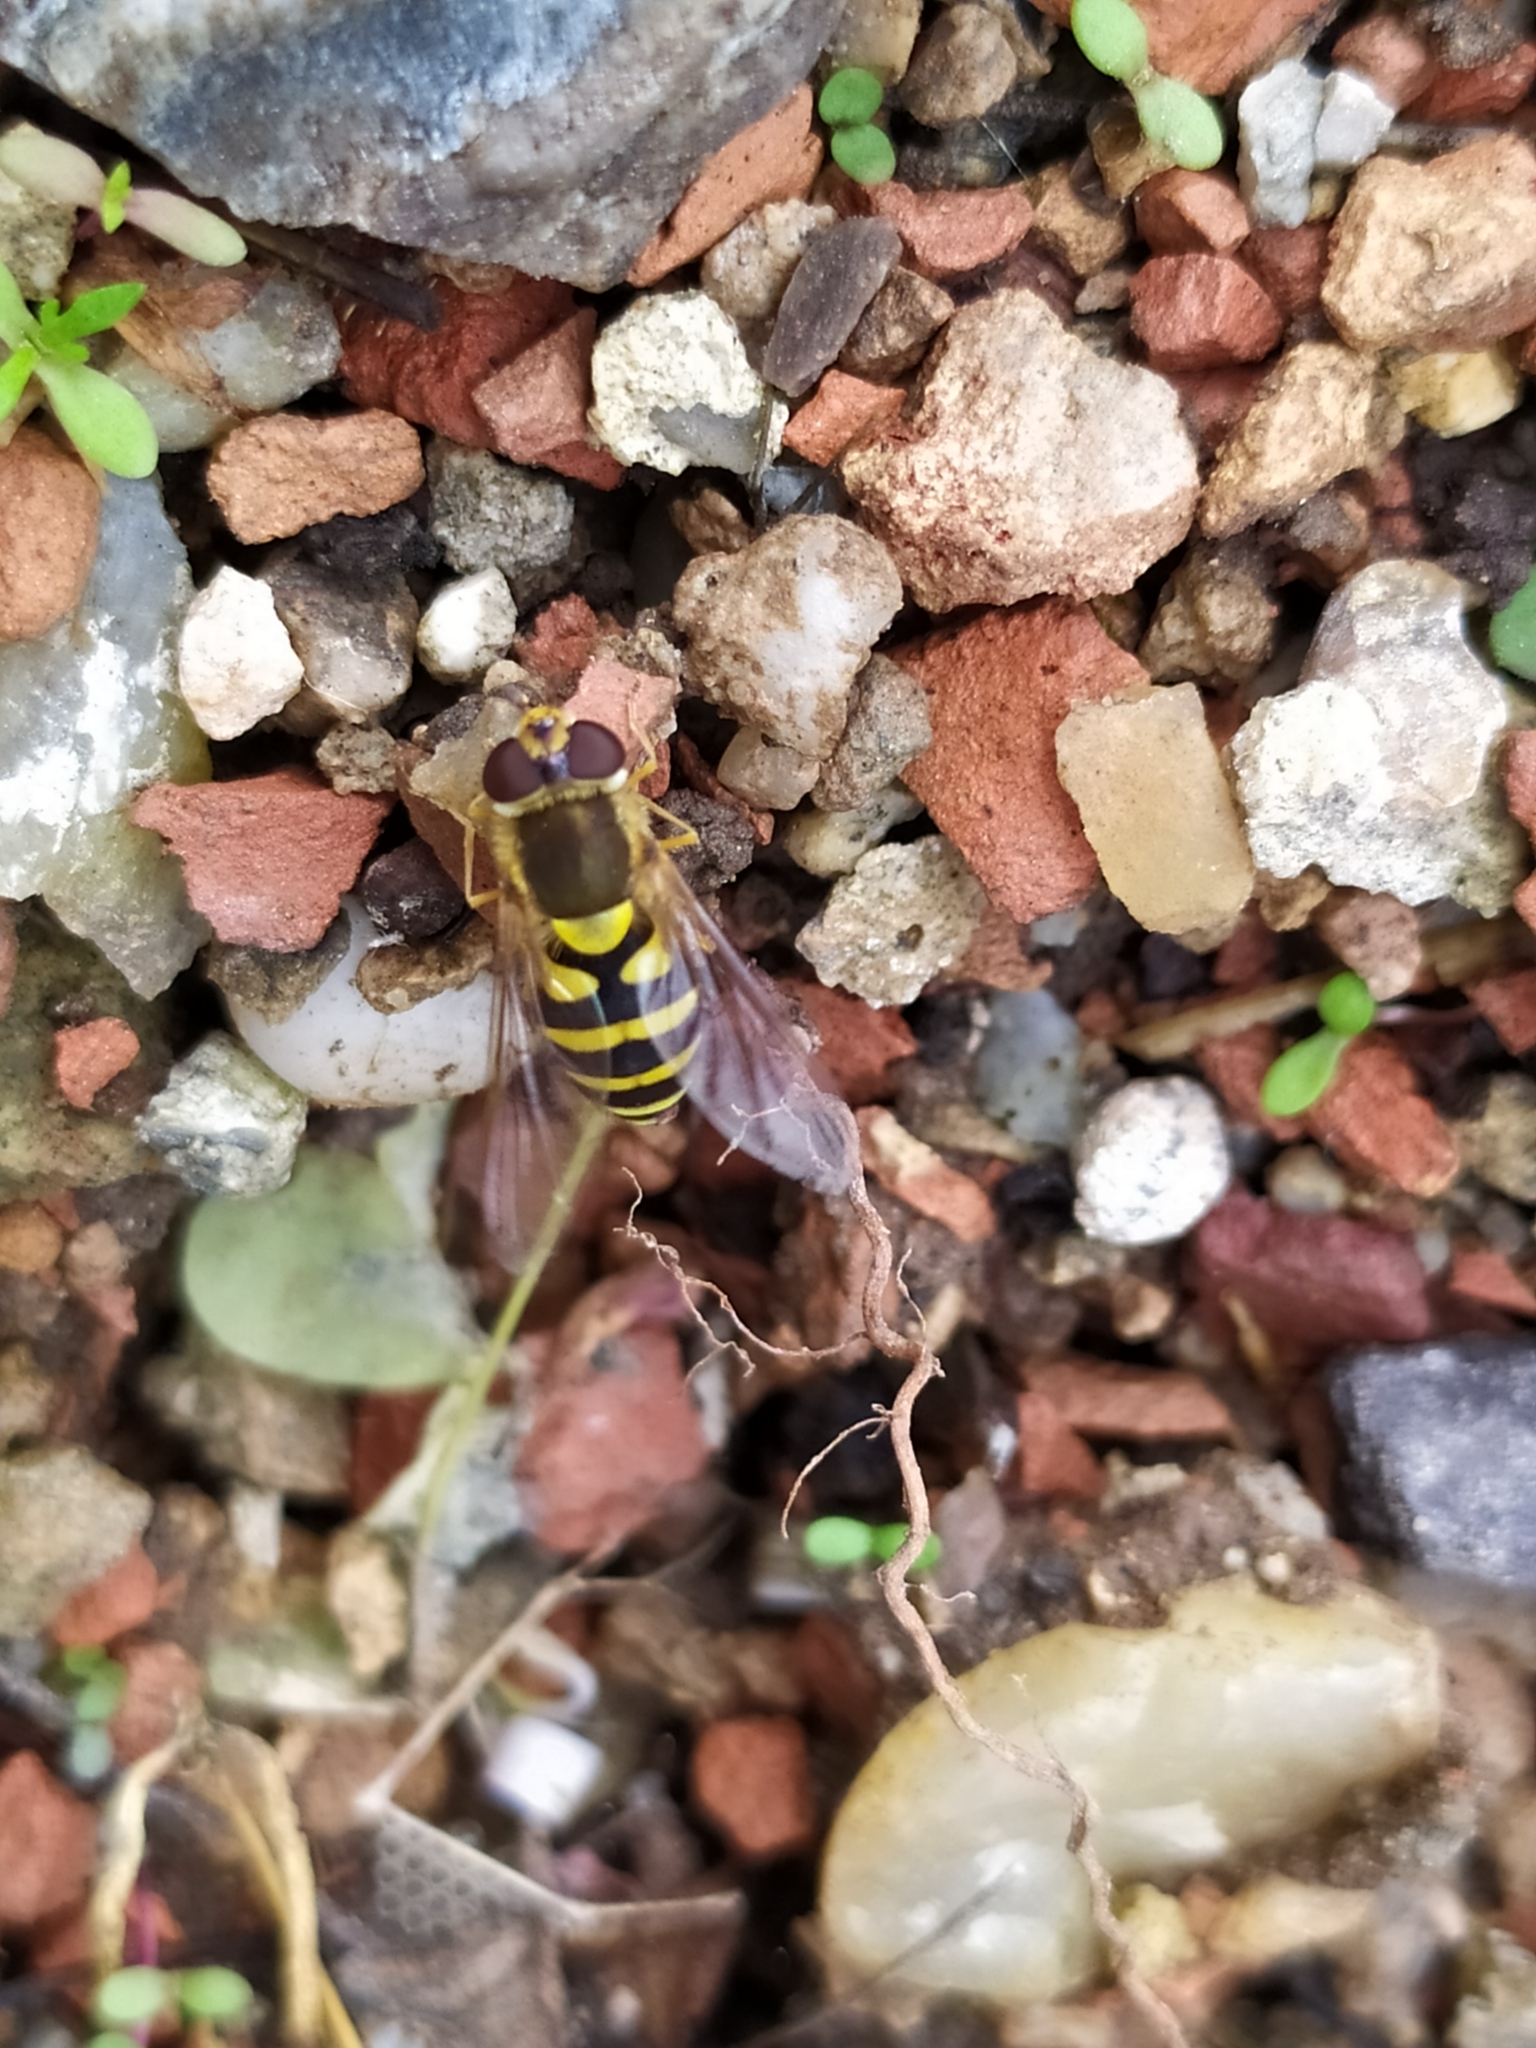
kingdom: Animalia
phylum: Arthropoda
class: Insecta
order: Diptera
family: Syrphidae
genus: Syrphus
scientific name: Syrphus ribesii
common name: Common flower fly
